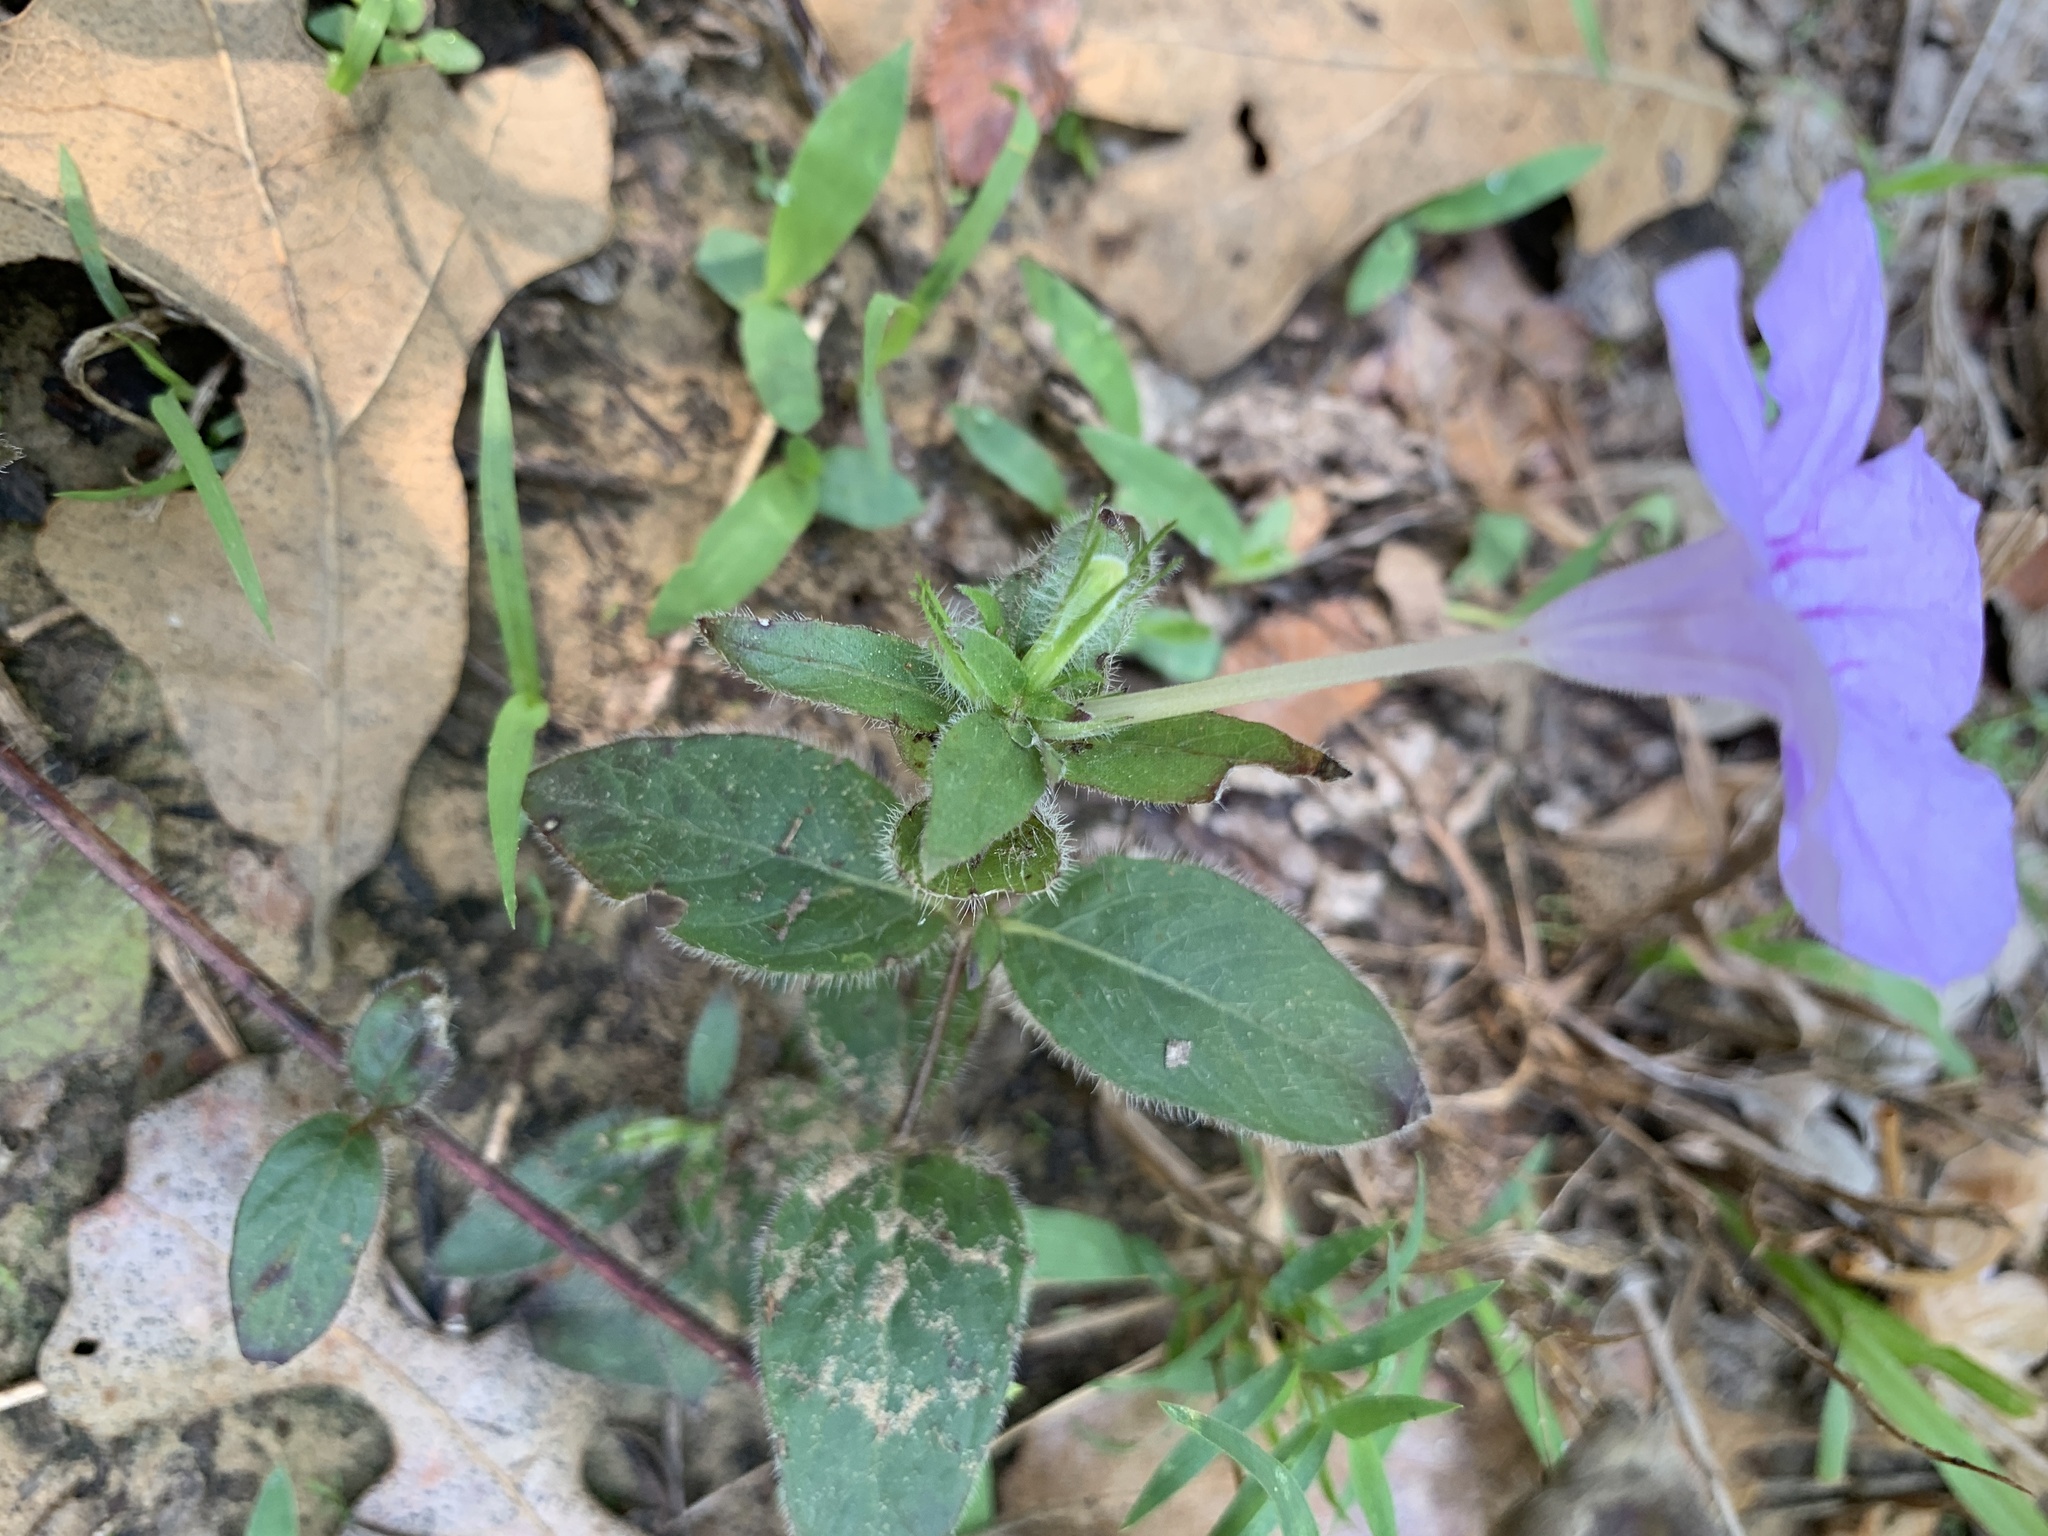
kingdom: Plantae
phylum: Tracheophyta
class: Magnoliopsida
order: Lamiales
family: Acanthaceae
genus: Ruellia
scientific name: Ruellia humilis
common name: Fringe-leaf ruellia
